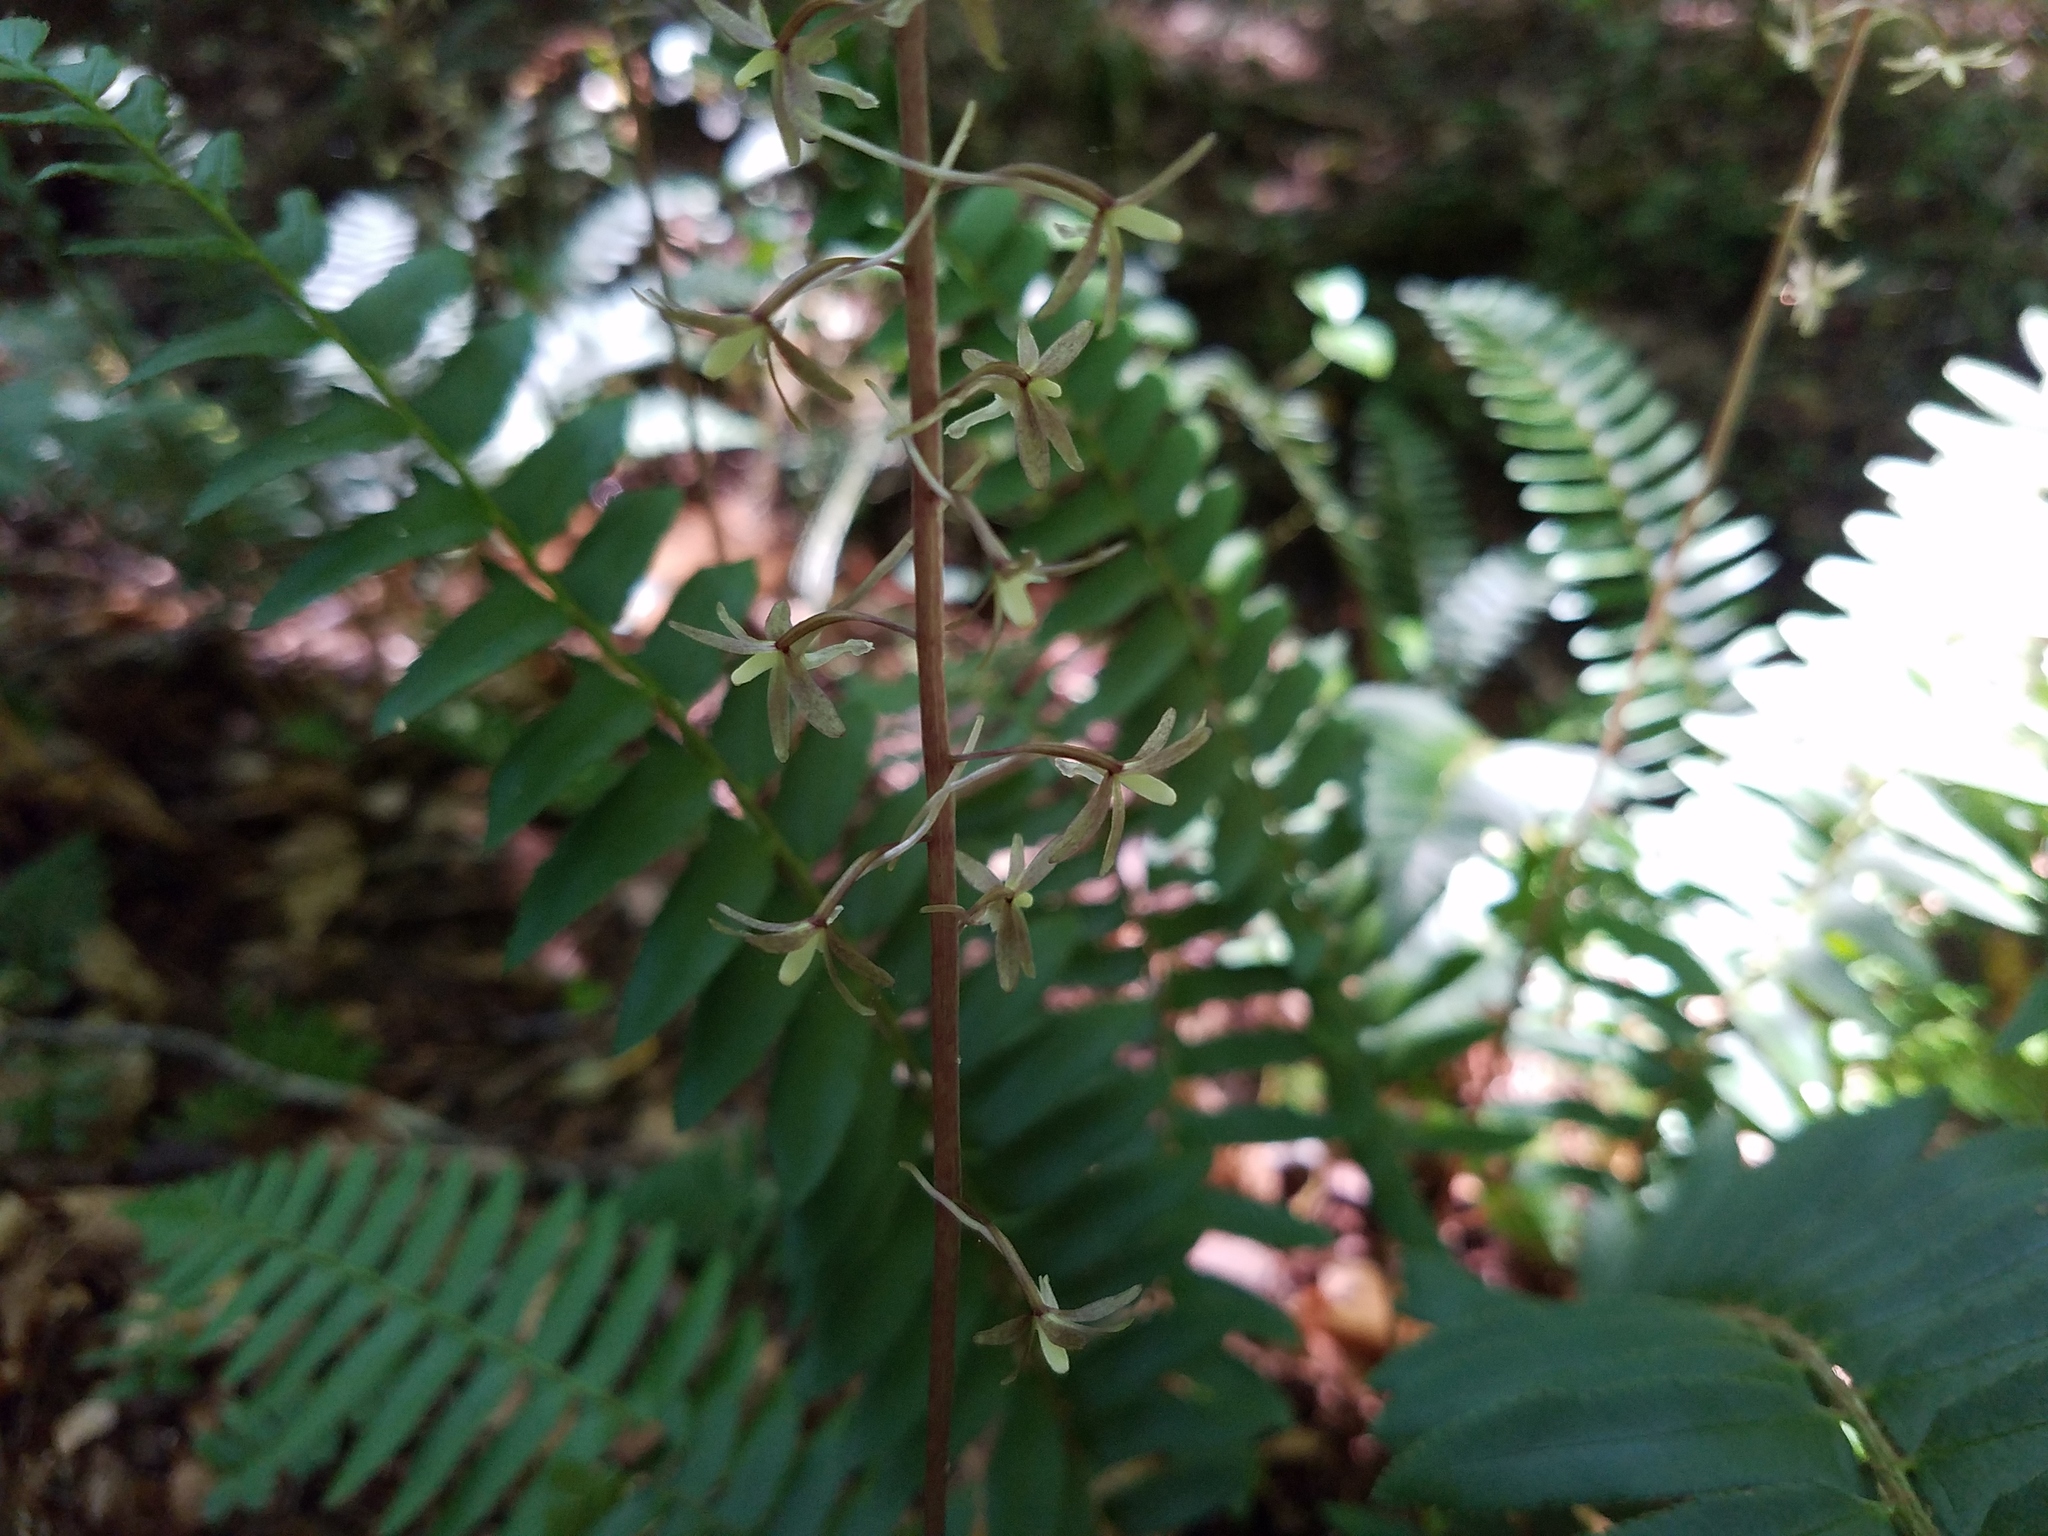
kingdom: Plantae
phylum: Tracheophyta
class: Liliopsida
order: Asparagales
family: Orchidaceae
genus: Tipularia
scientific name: Tipularia discolor
